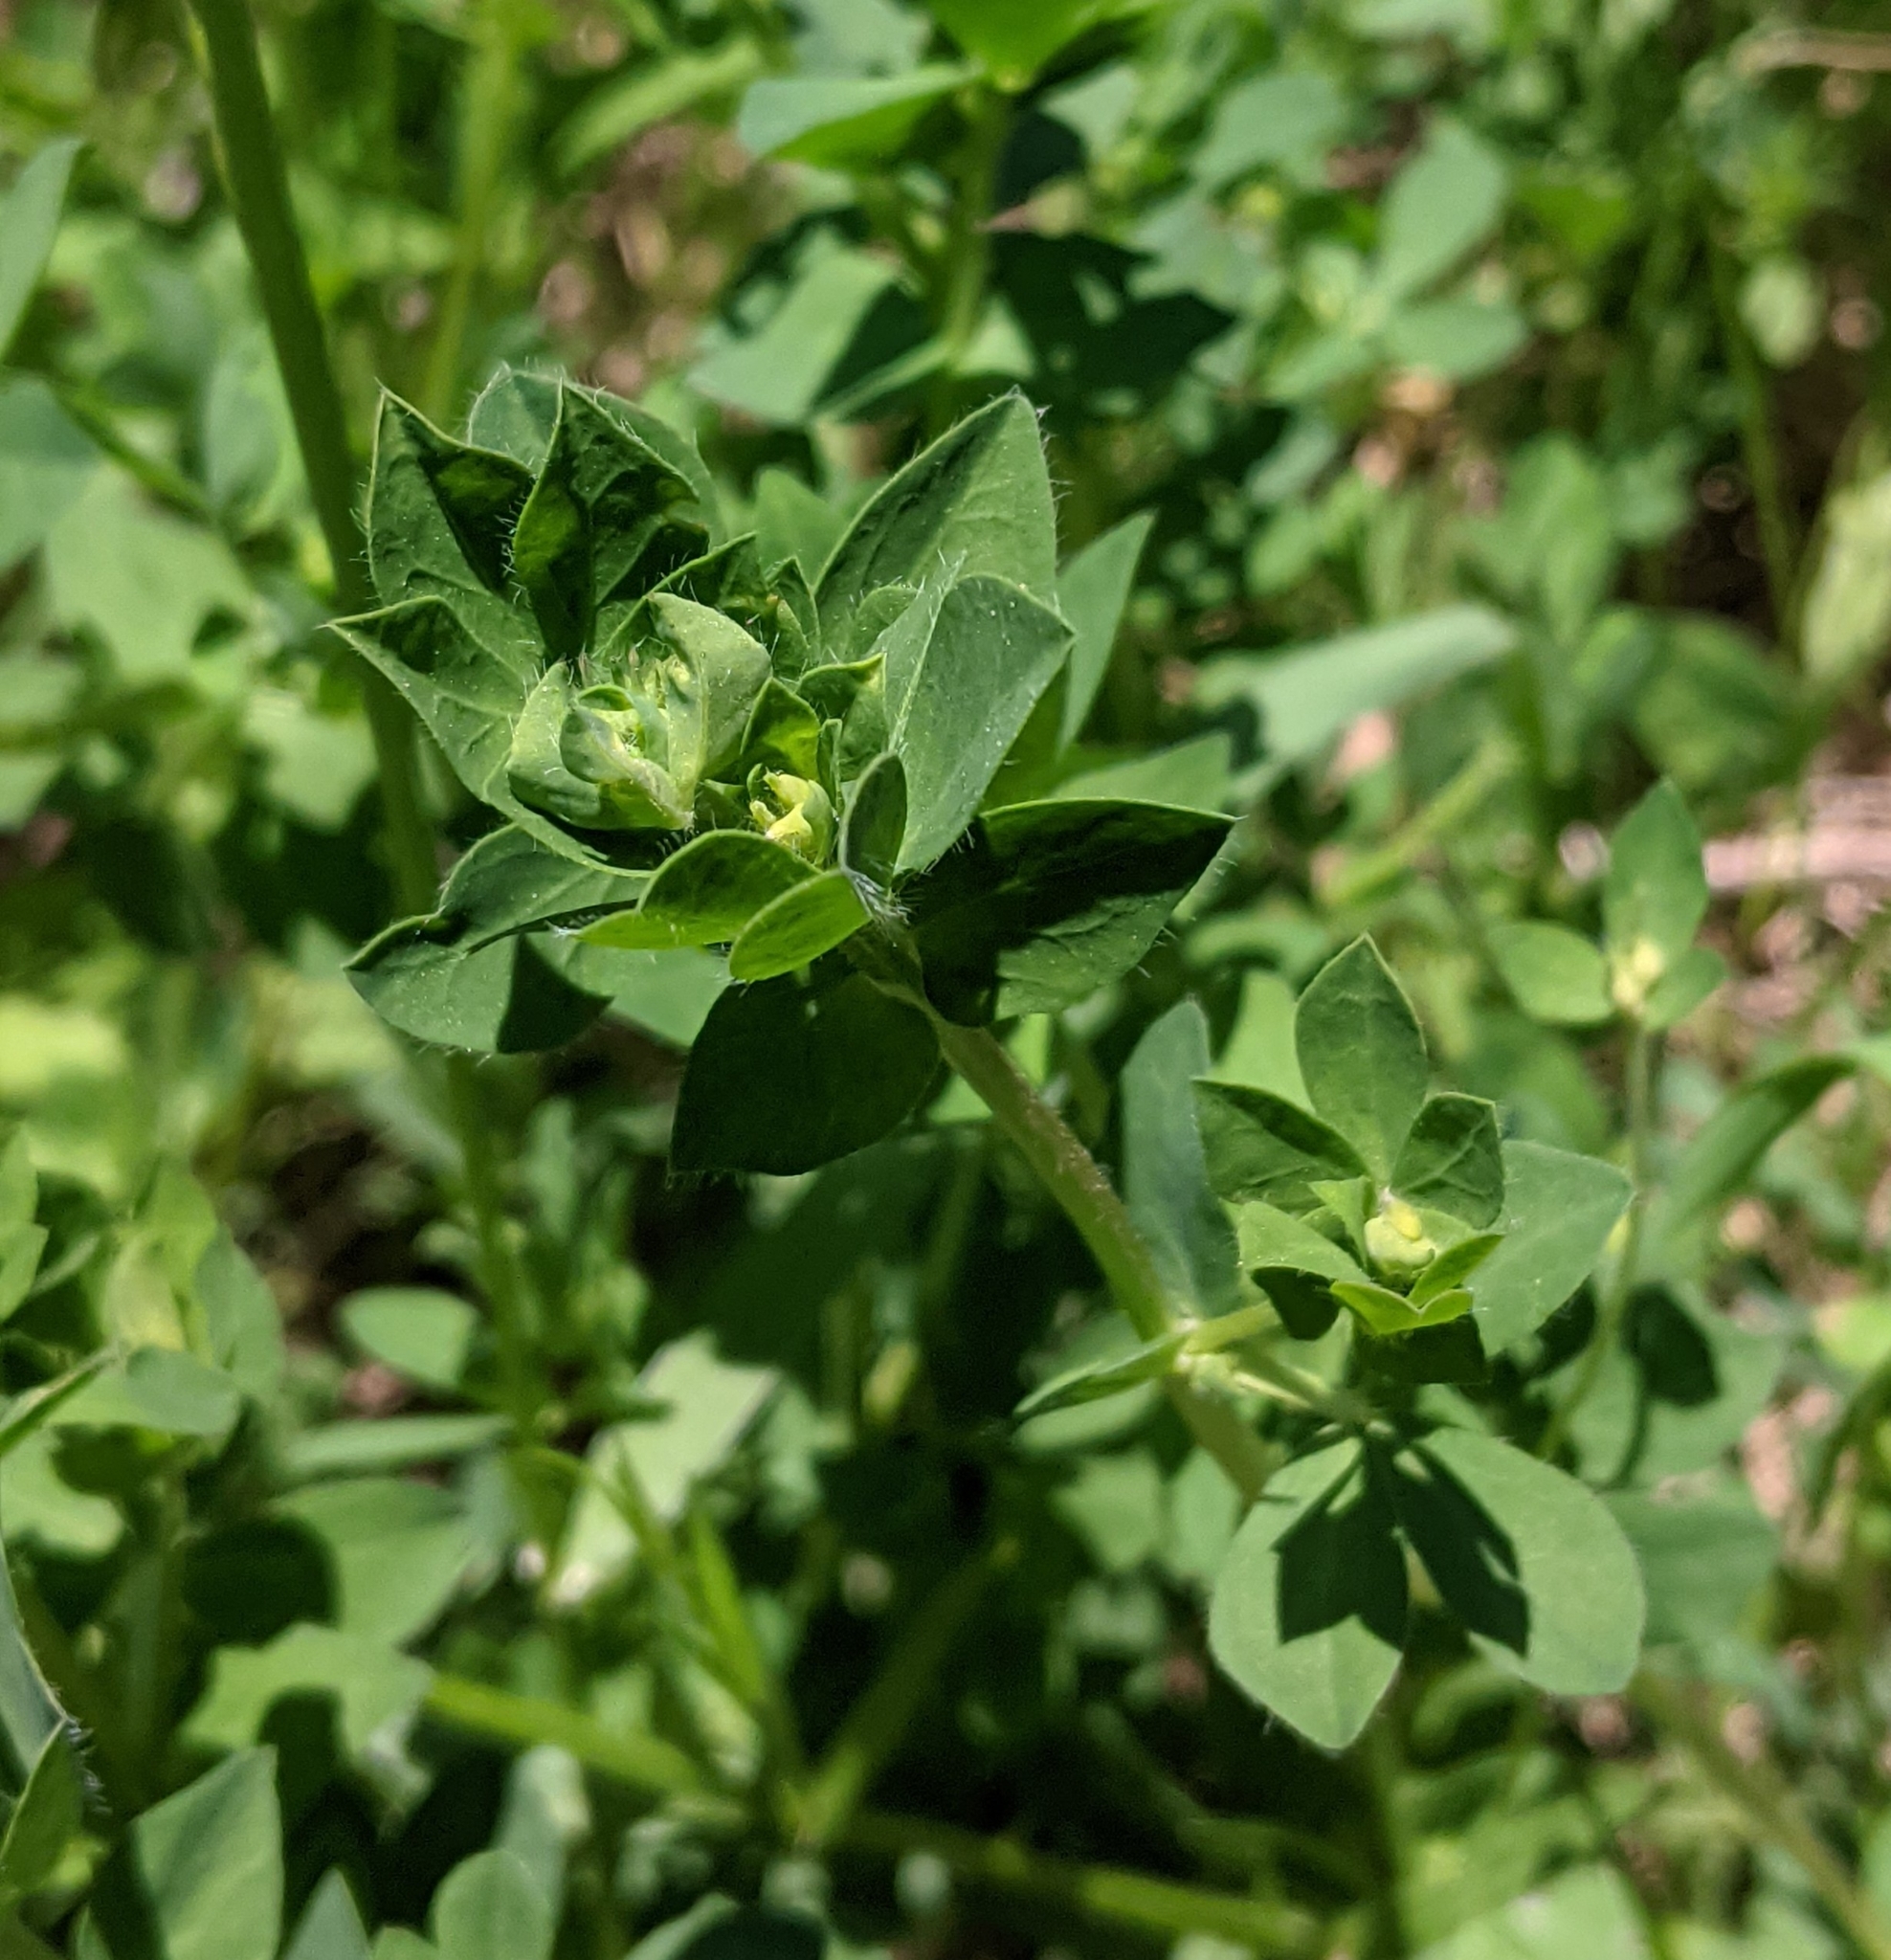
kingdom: Plantae
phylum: Tracheophyta
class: Magnoliopsida
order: Fabales
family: Fabaceae
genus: Lotus
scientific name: Lotus corniculatus
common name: Common bird's-foot-trefoil
